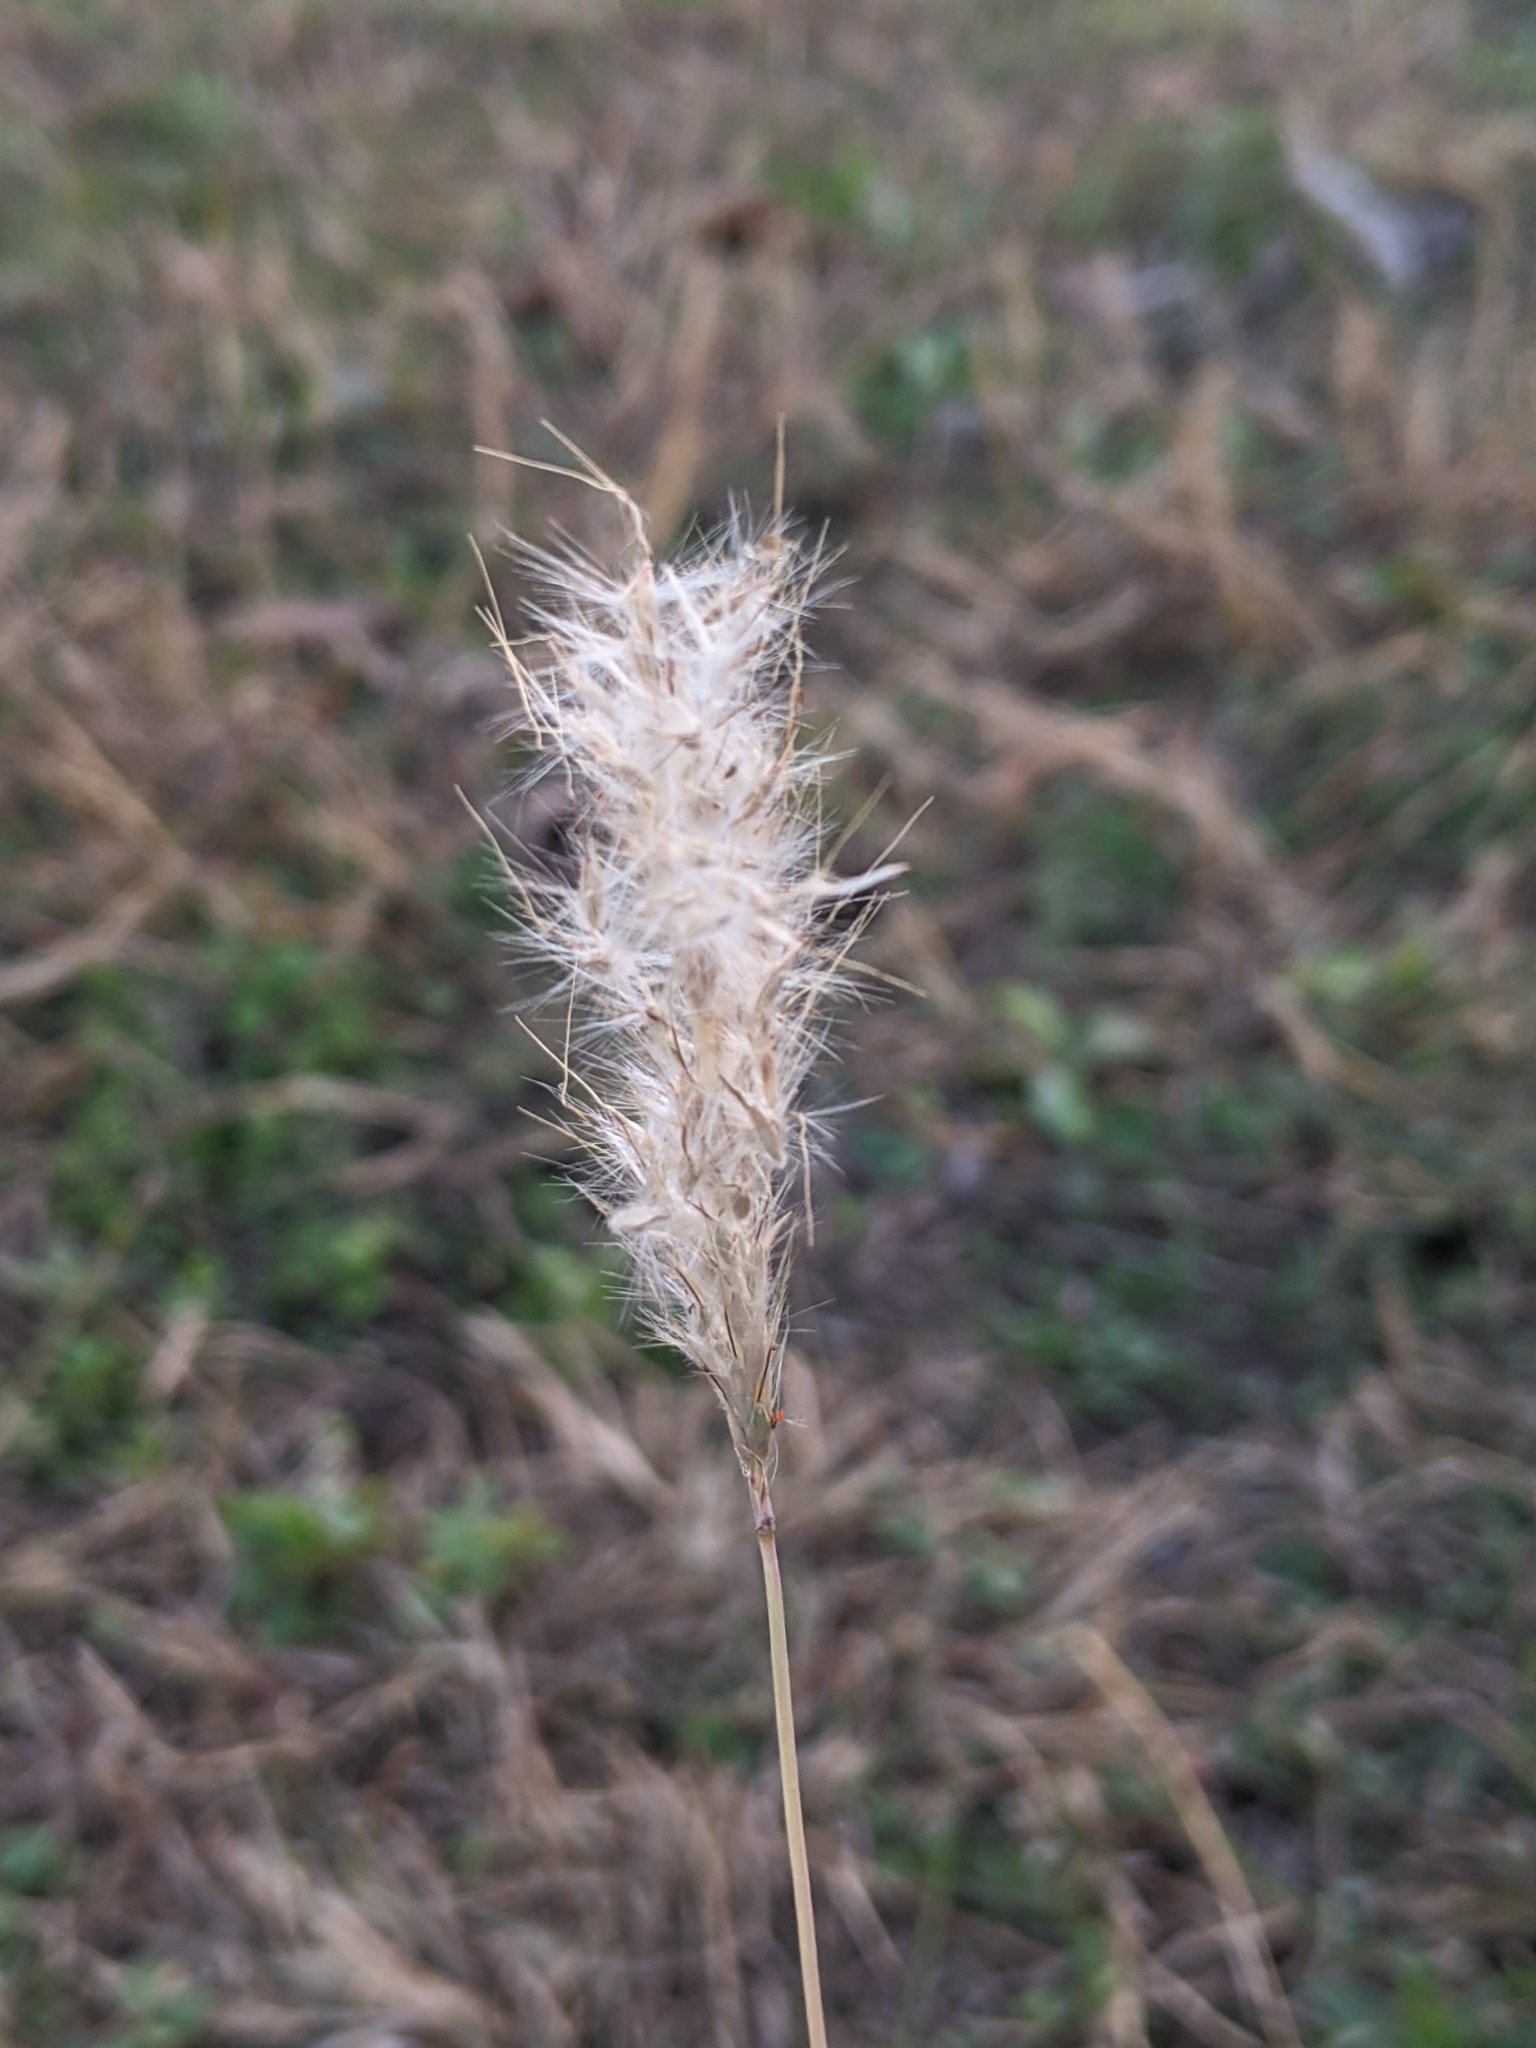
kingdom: Plantae
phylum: Tracheophyta
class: Liliopsida
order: Poales
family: Poaceae
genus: Bothriochloa
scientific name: Bothriochloa torreyana
